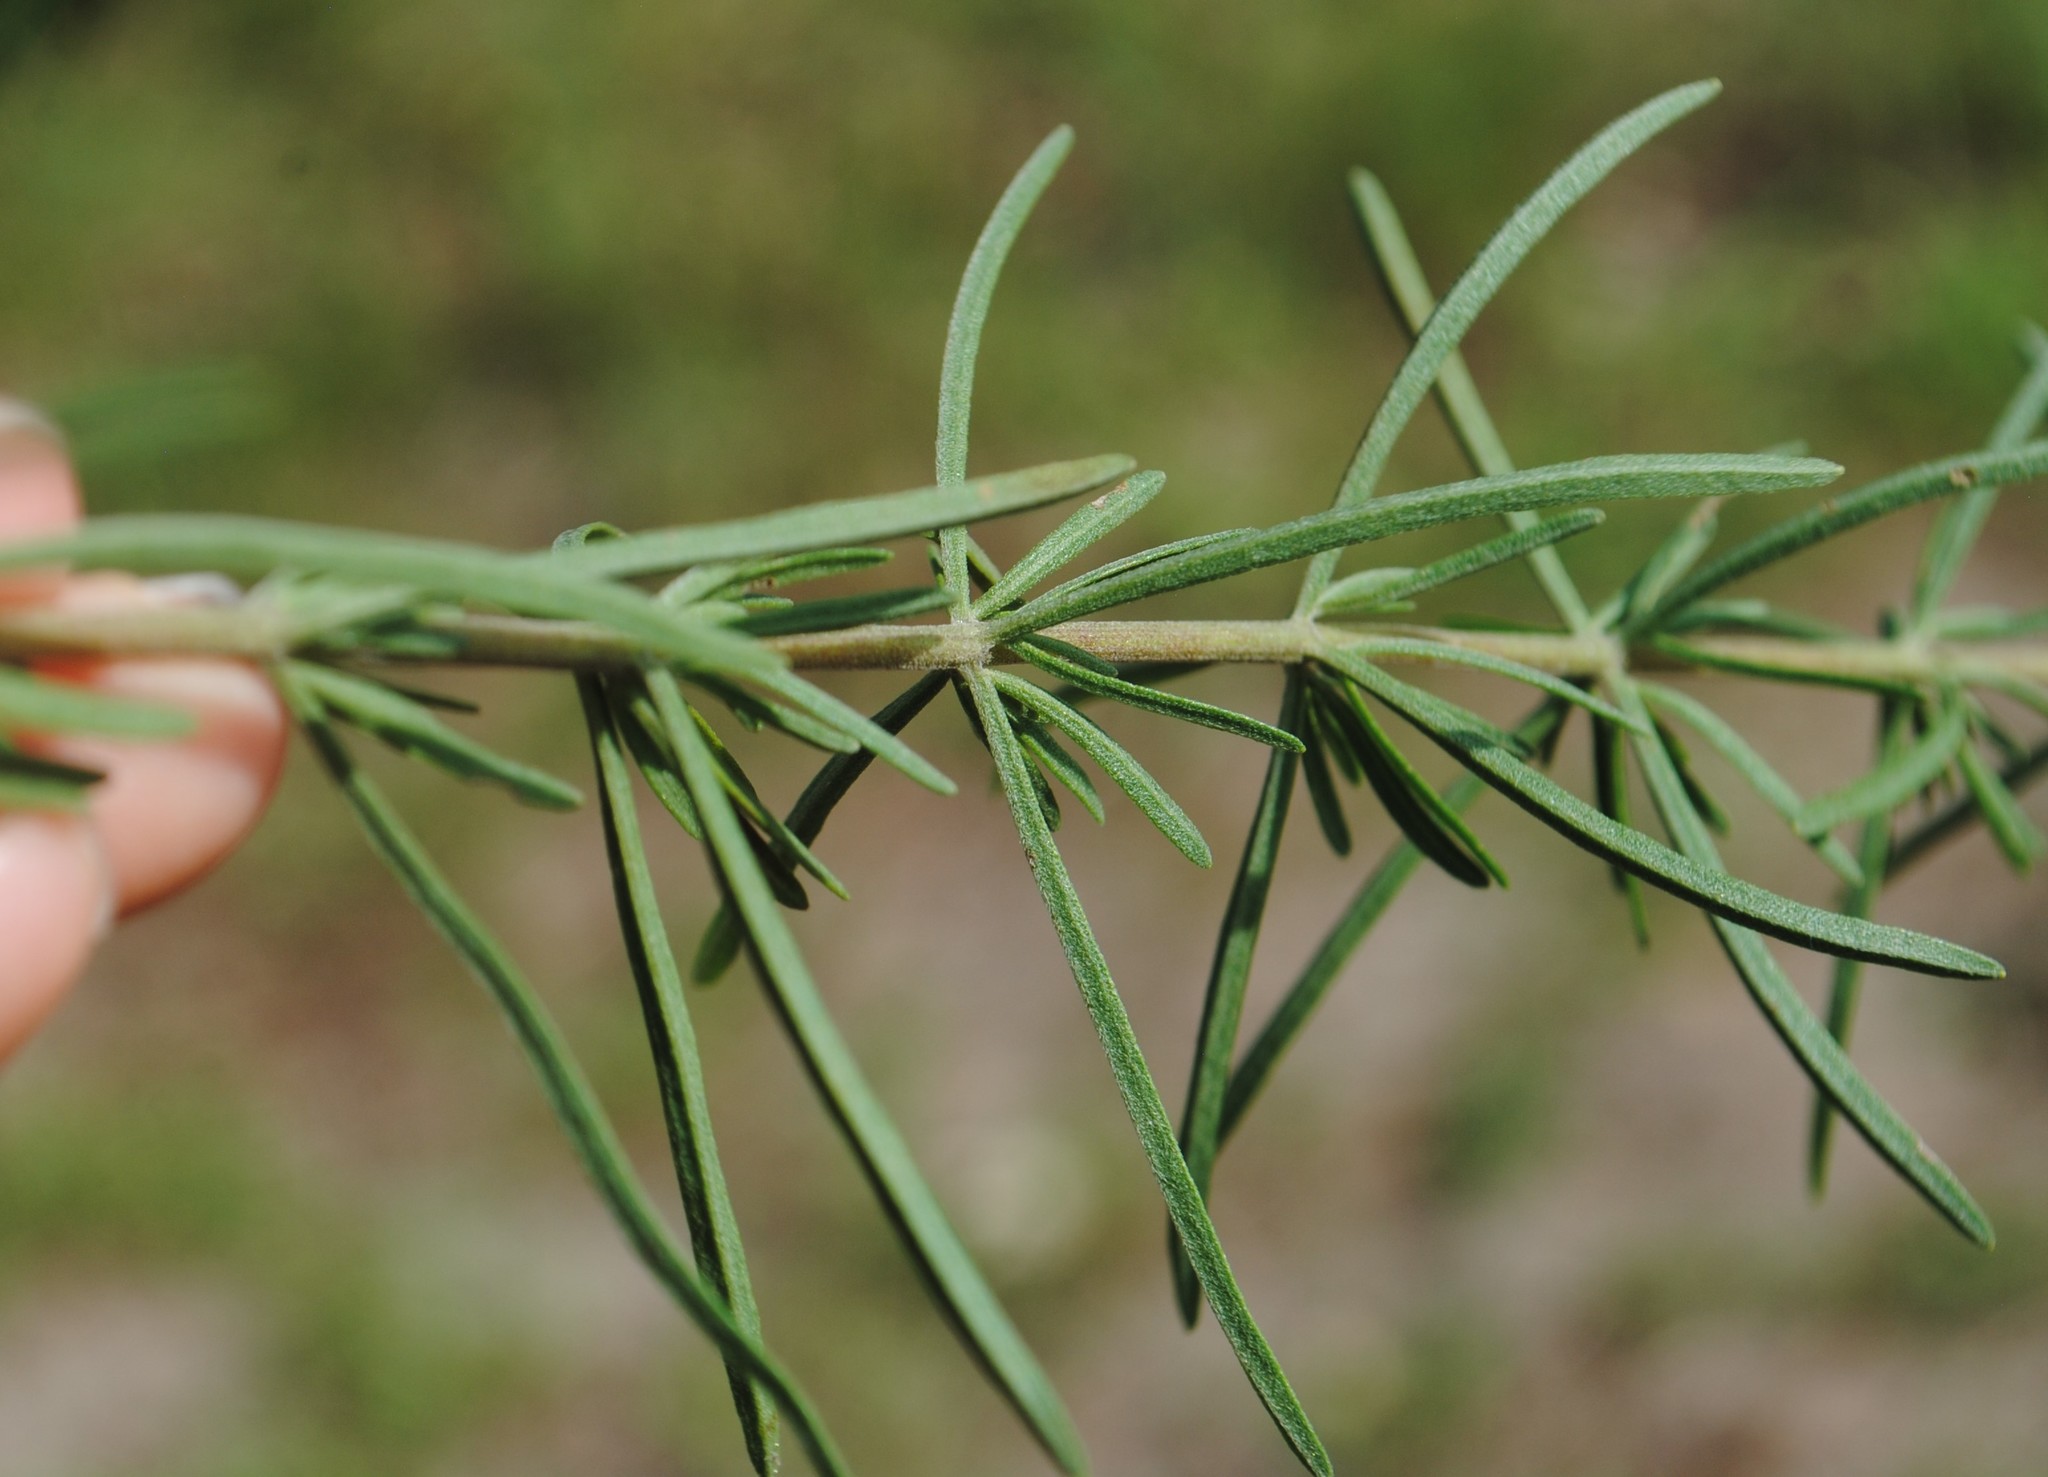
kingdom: Plantae
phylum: Tracheophyta
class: Magnoliopsida
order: Asterales
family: Asteraceae
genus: Eupatorium
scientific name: Eupatorium hyssopifolium
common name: Hyssop-leaf thoroughwort
